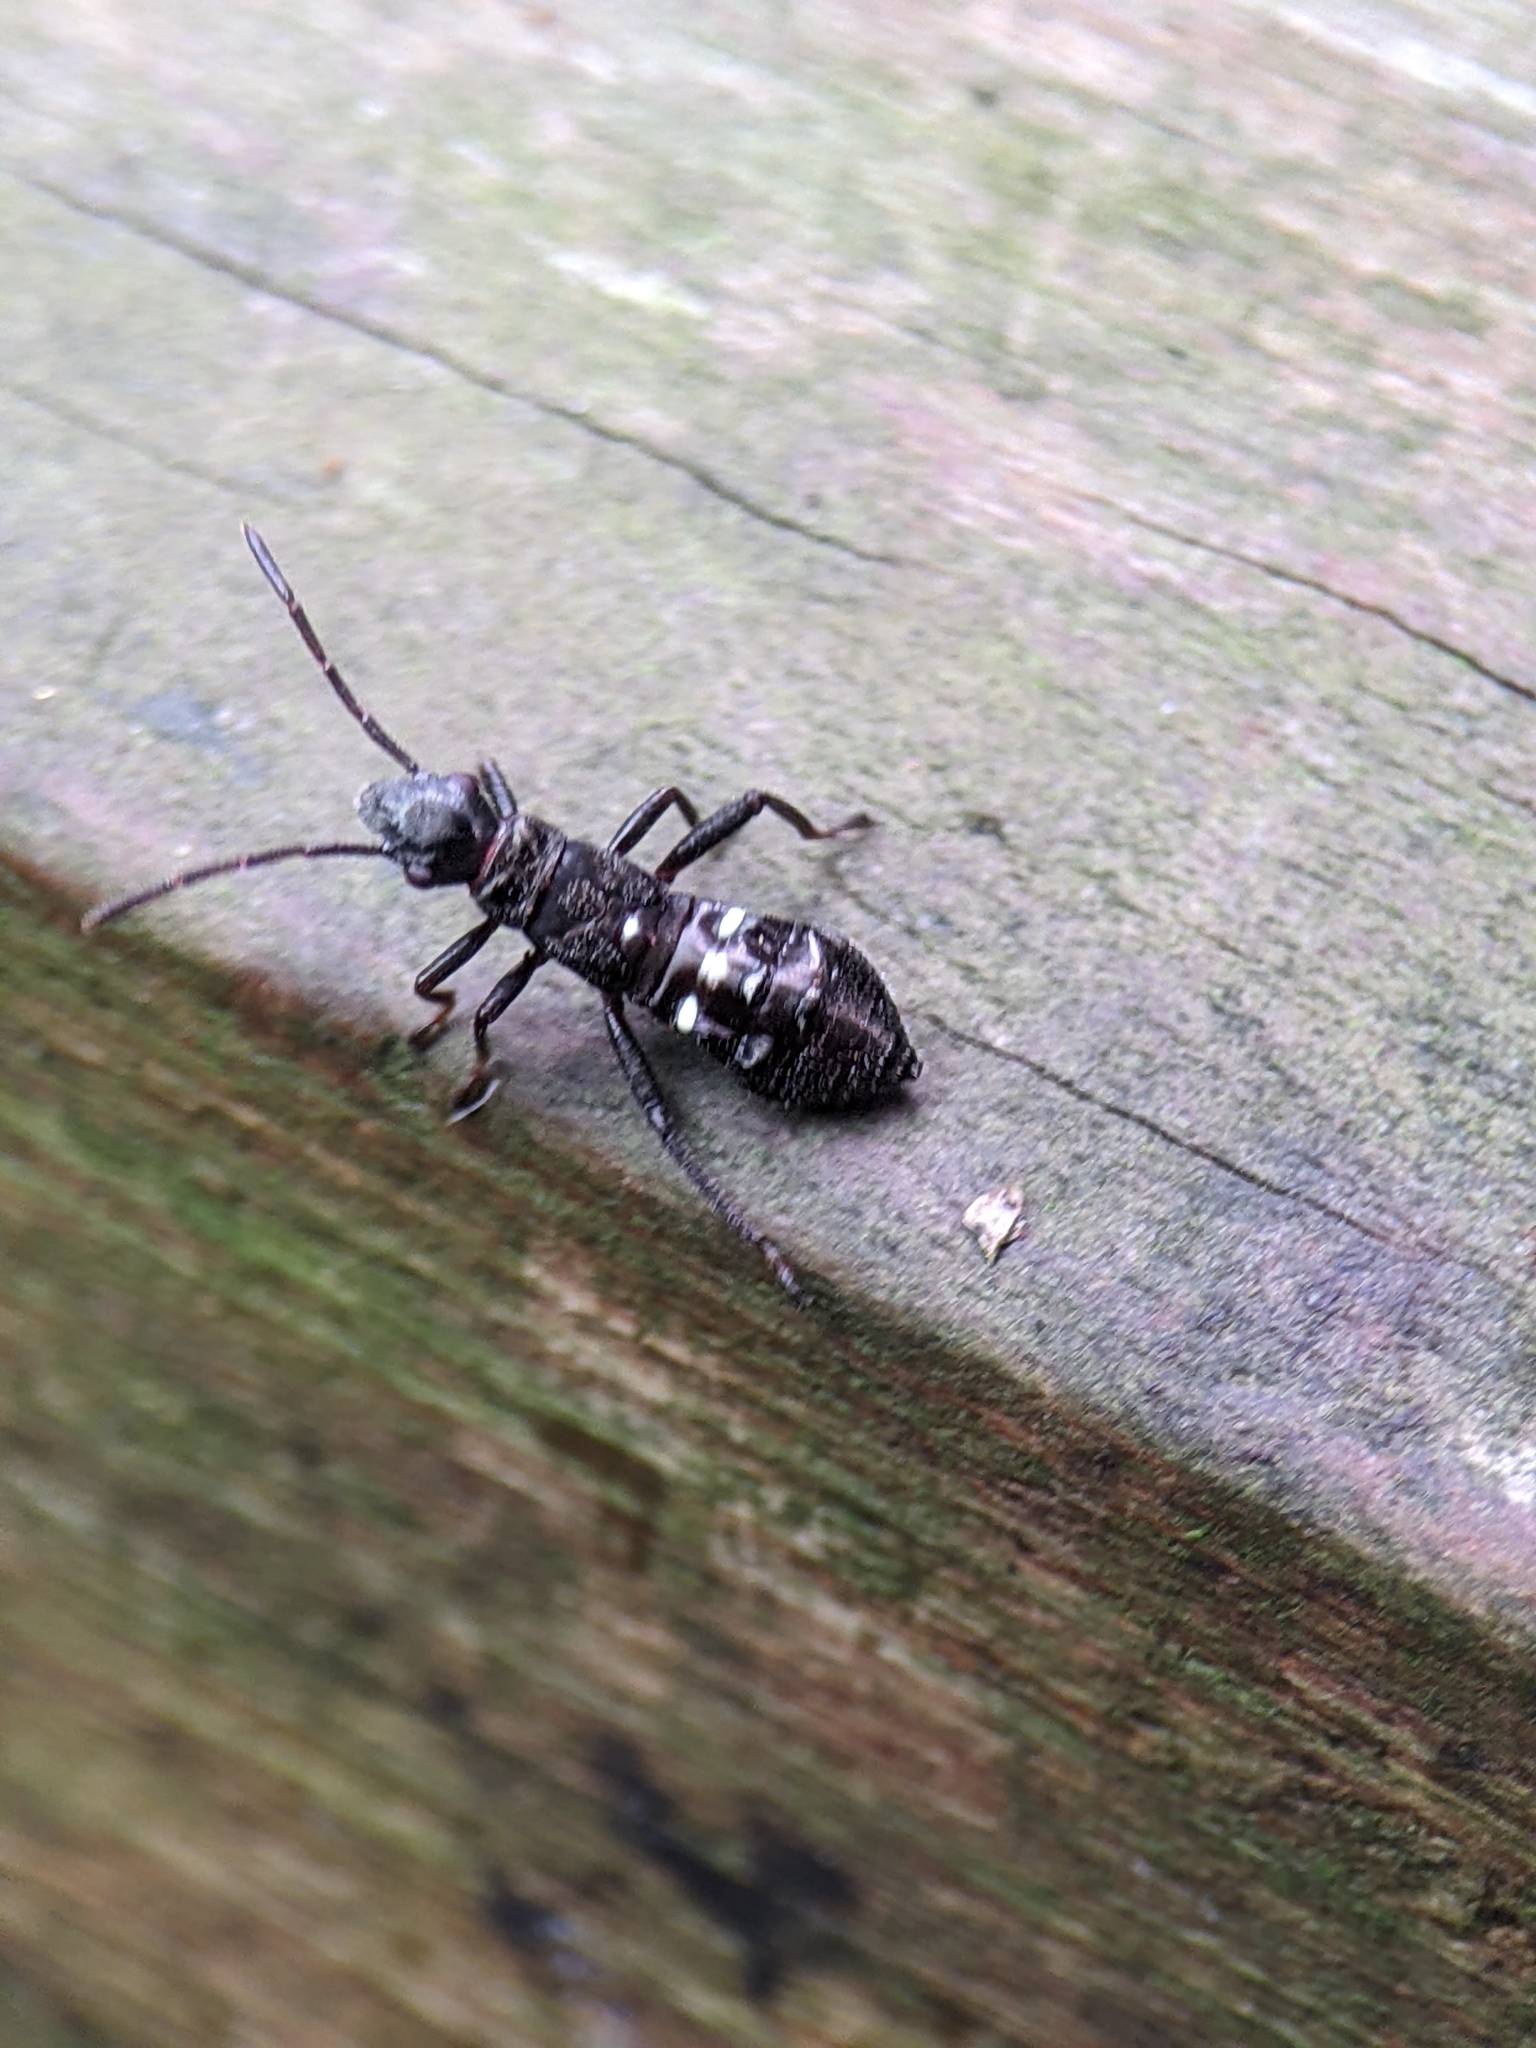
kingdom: Animalia
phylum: Arthropoda
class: Insecta
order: Hemiptera
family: Alydidae
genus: Daclera
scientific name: Daclera levana
